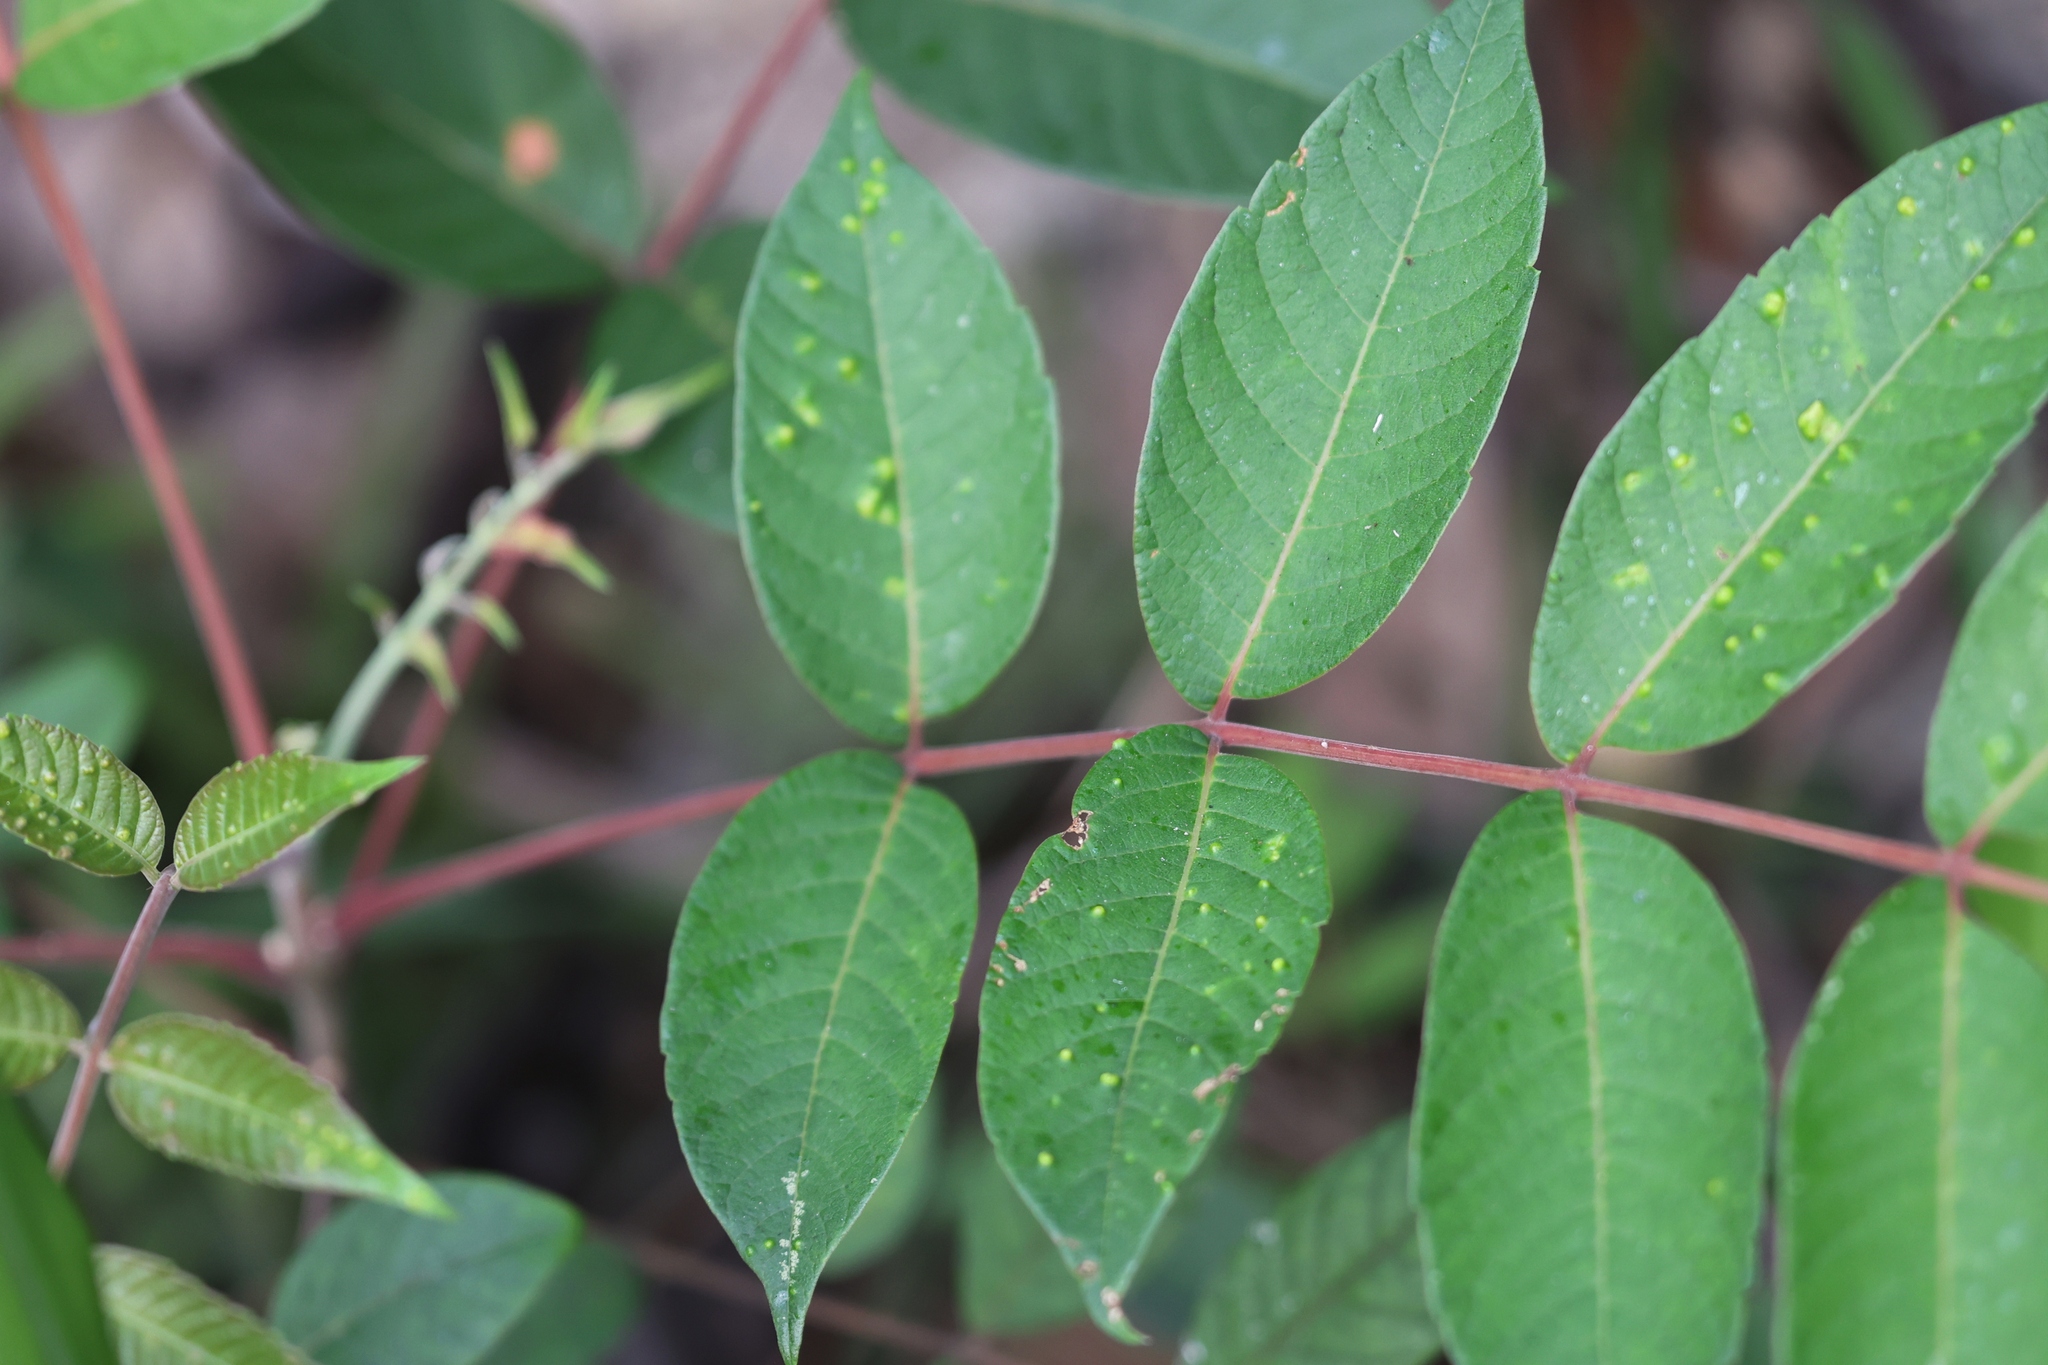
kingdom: Plantae
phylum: Tracheophyta
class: Magnoliopsida
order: Sapindales
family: Anacardiaceae
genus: Rhus
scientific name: Rhus hypoleuca
